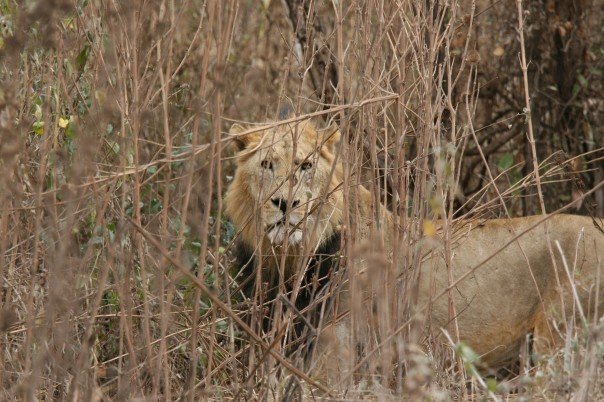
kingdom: Animalia
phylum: Chordata
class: Mammalia
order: Carnivora
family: Felidae
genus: Panthera
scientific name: Panthera leo
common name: Lion
